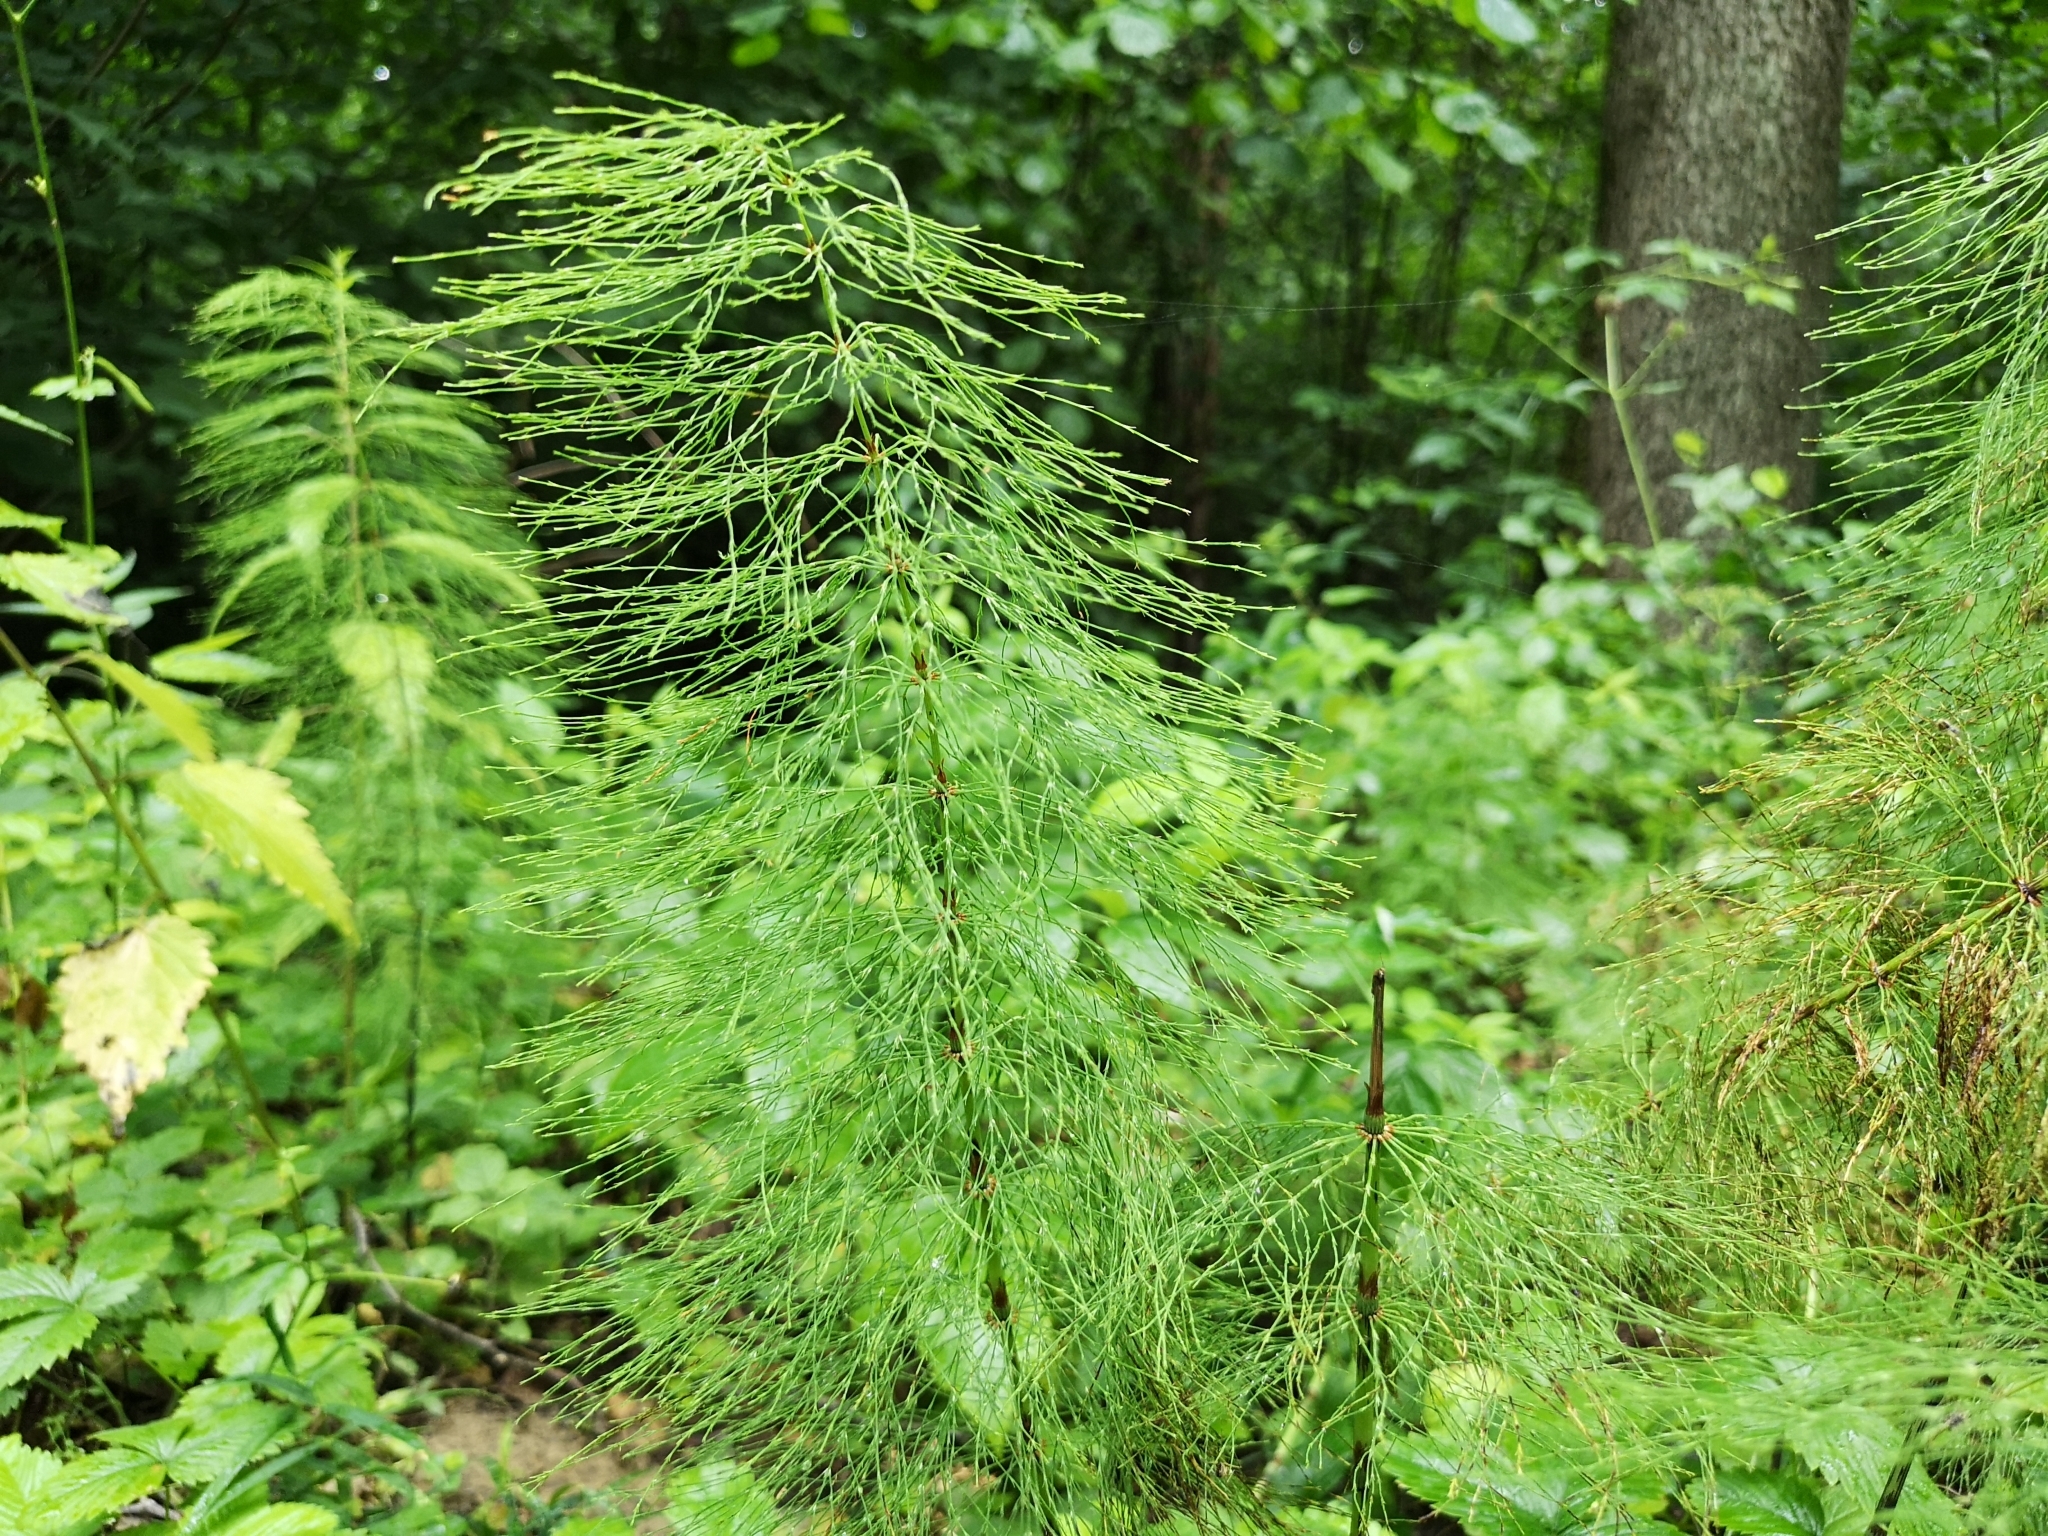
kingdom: Plantae
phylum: Tracheophyta
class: Polypodiopsida
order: Equisetales
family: Equisetaceae
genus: Equisetum
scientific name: Equisetum sylvaticum
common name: Wood horsetail
